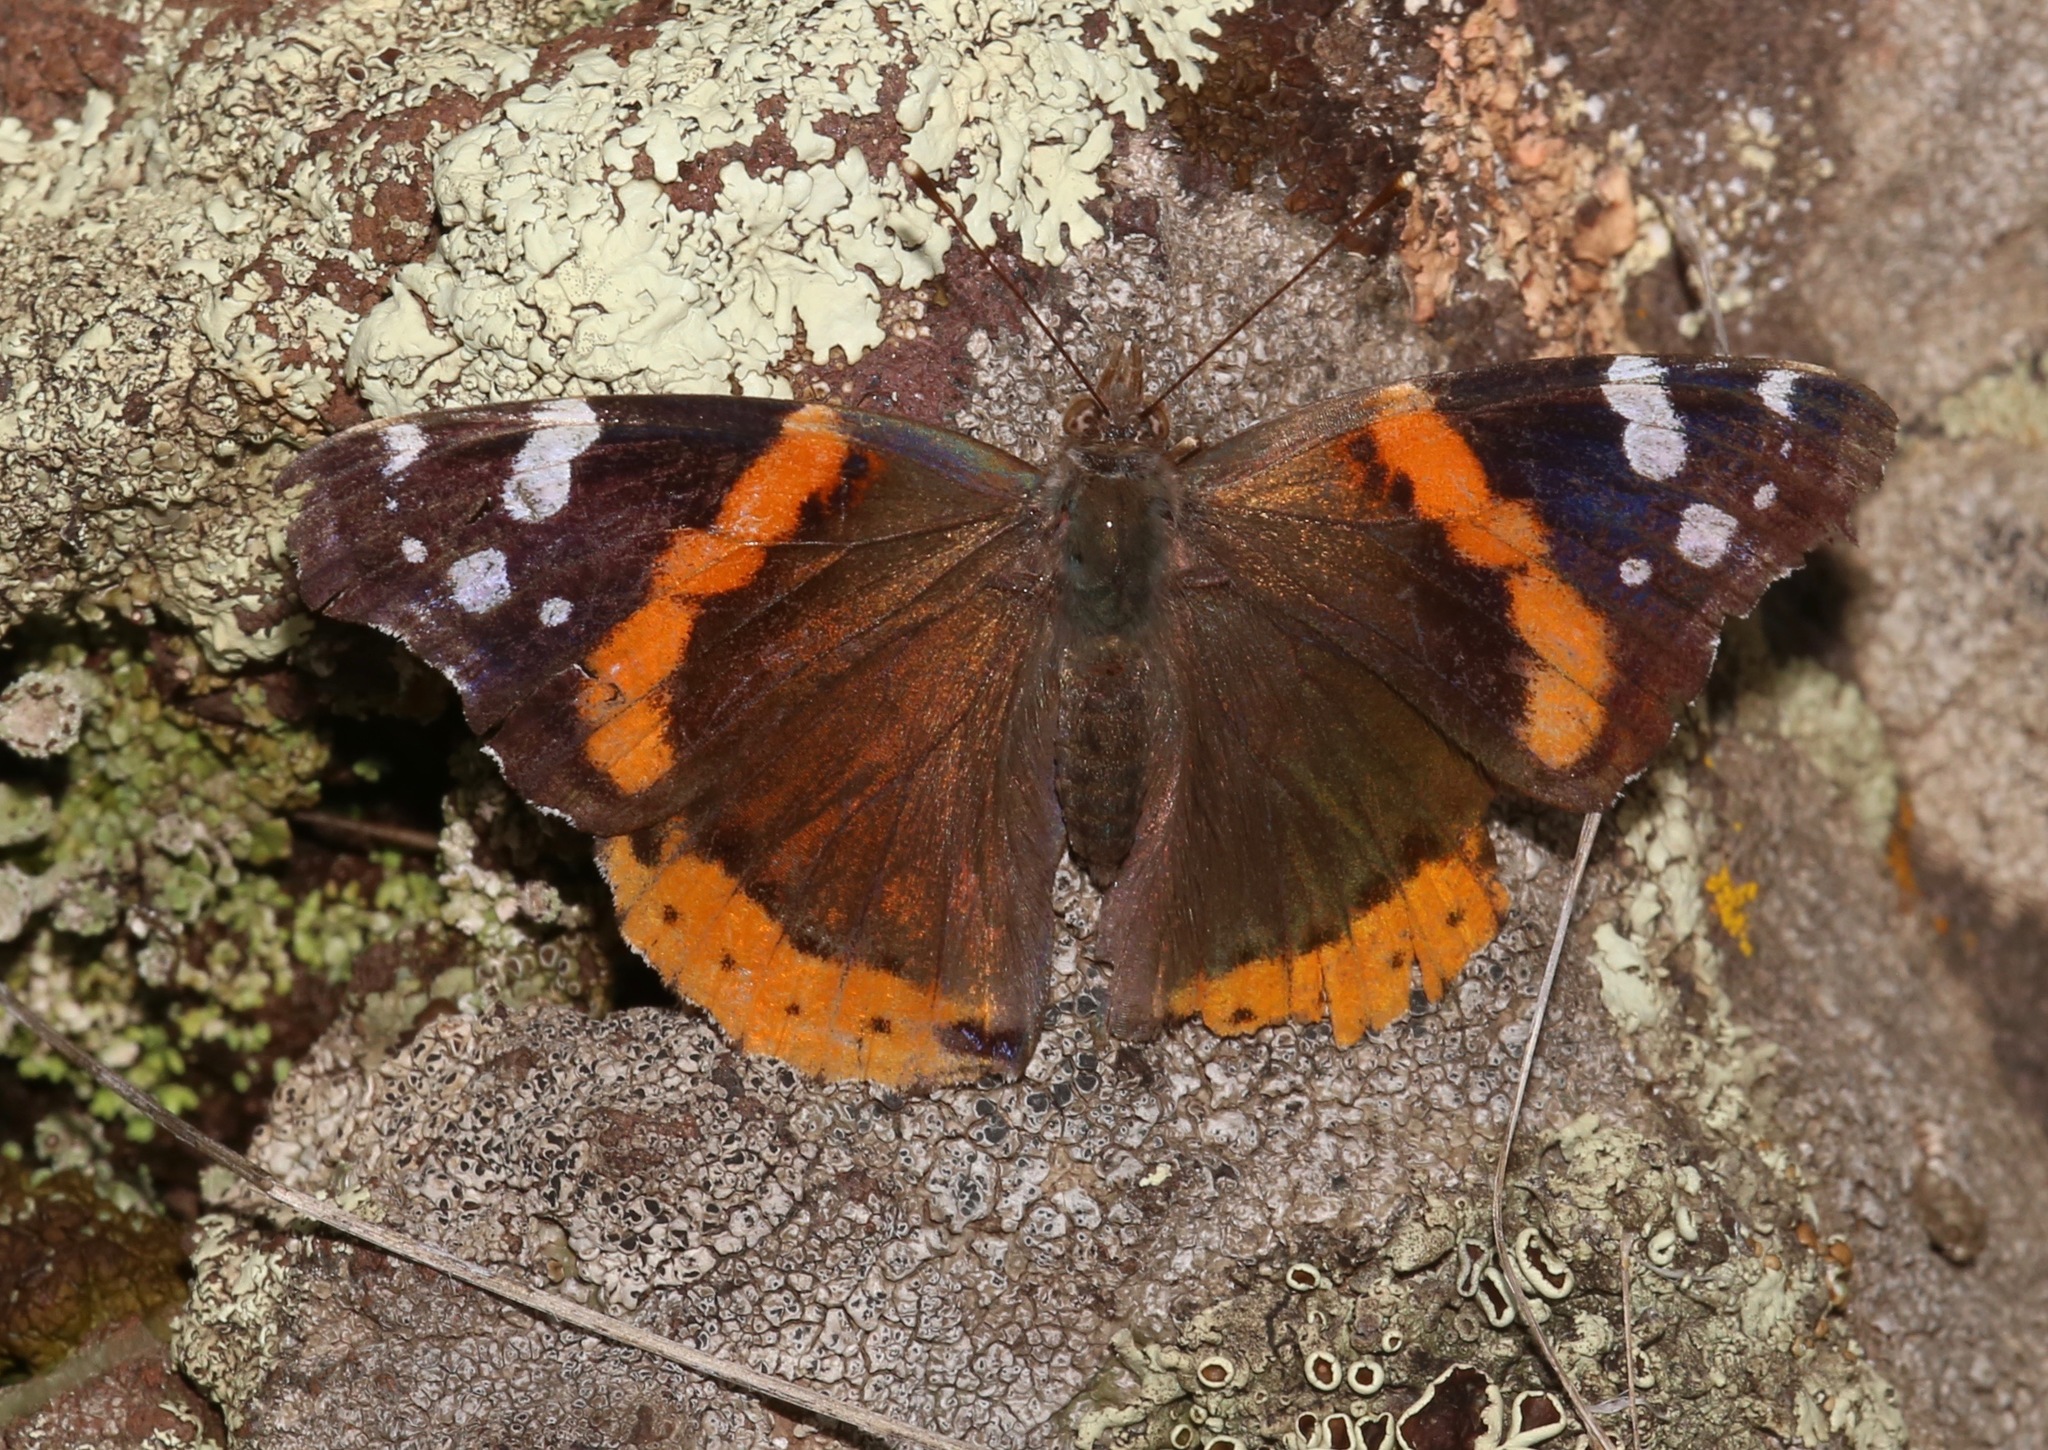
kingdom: Animalia
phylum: Arthropoda
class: Insecta
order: Lepidoptera
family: Nymphalidae
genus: Vanessa
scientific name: Vanessa atalanta
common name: Red admiral
